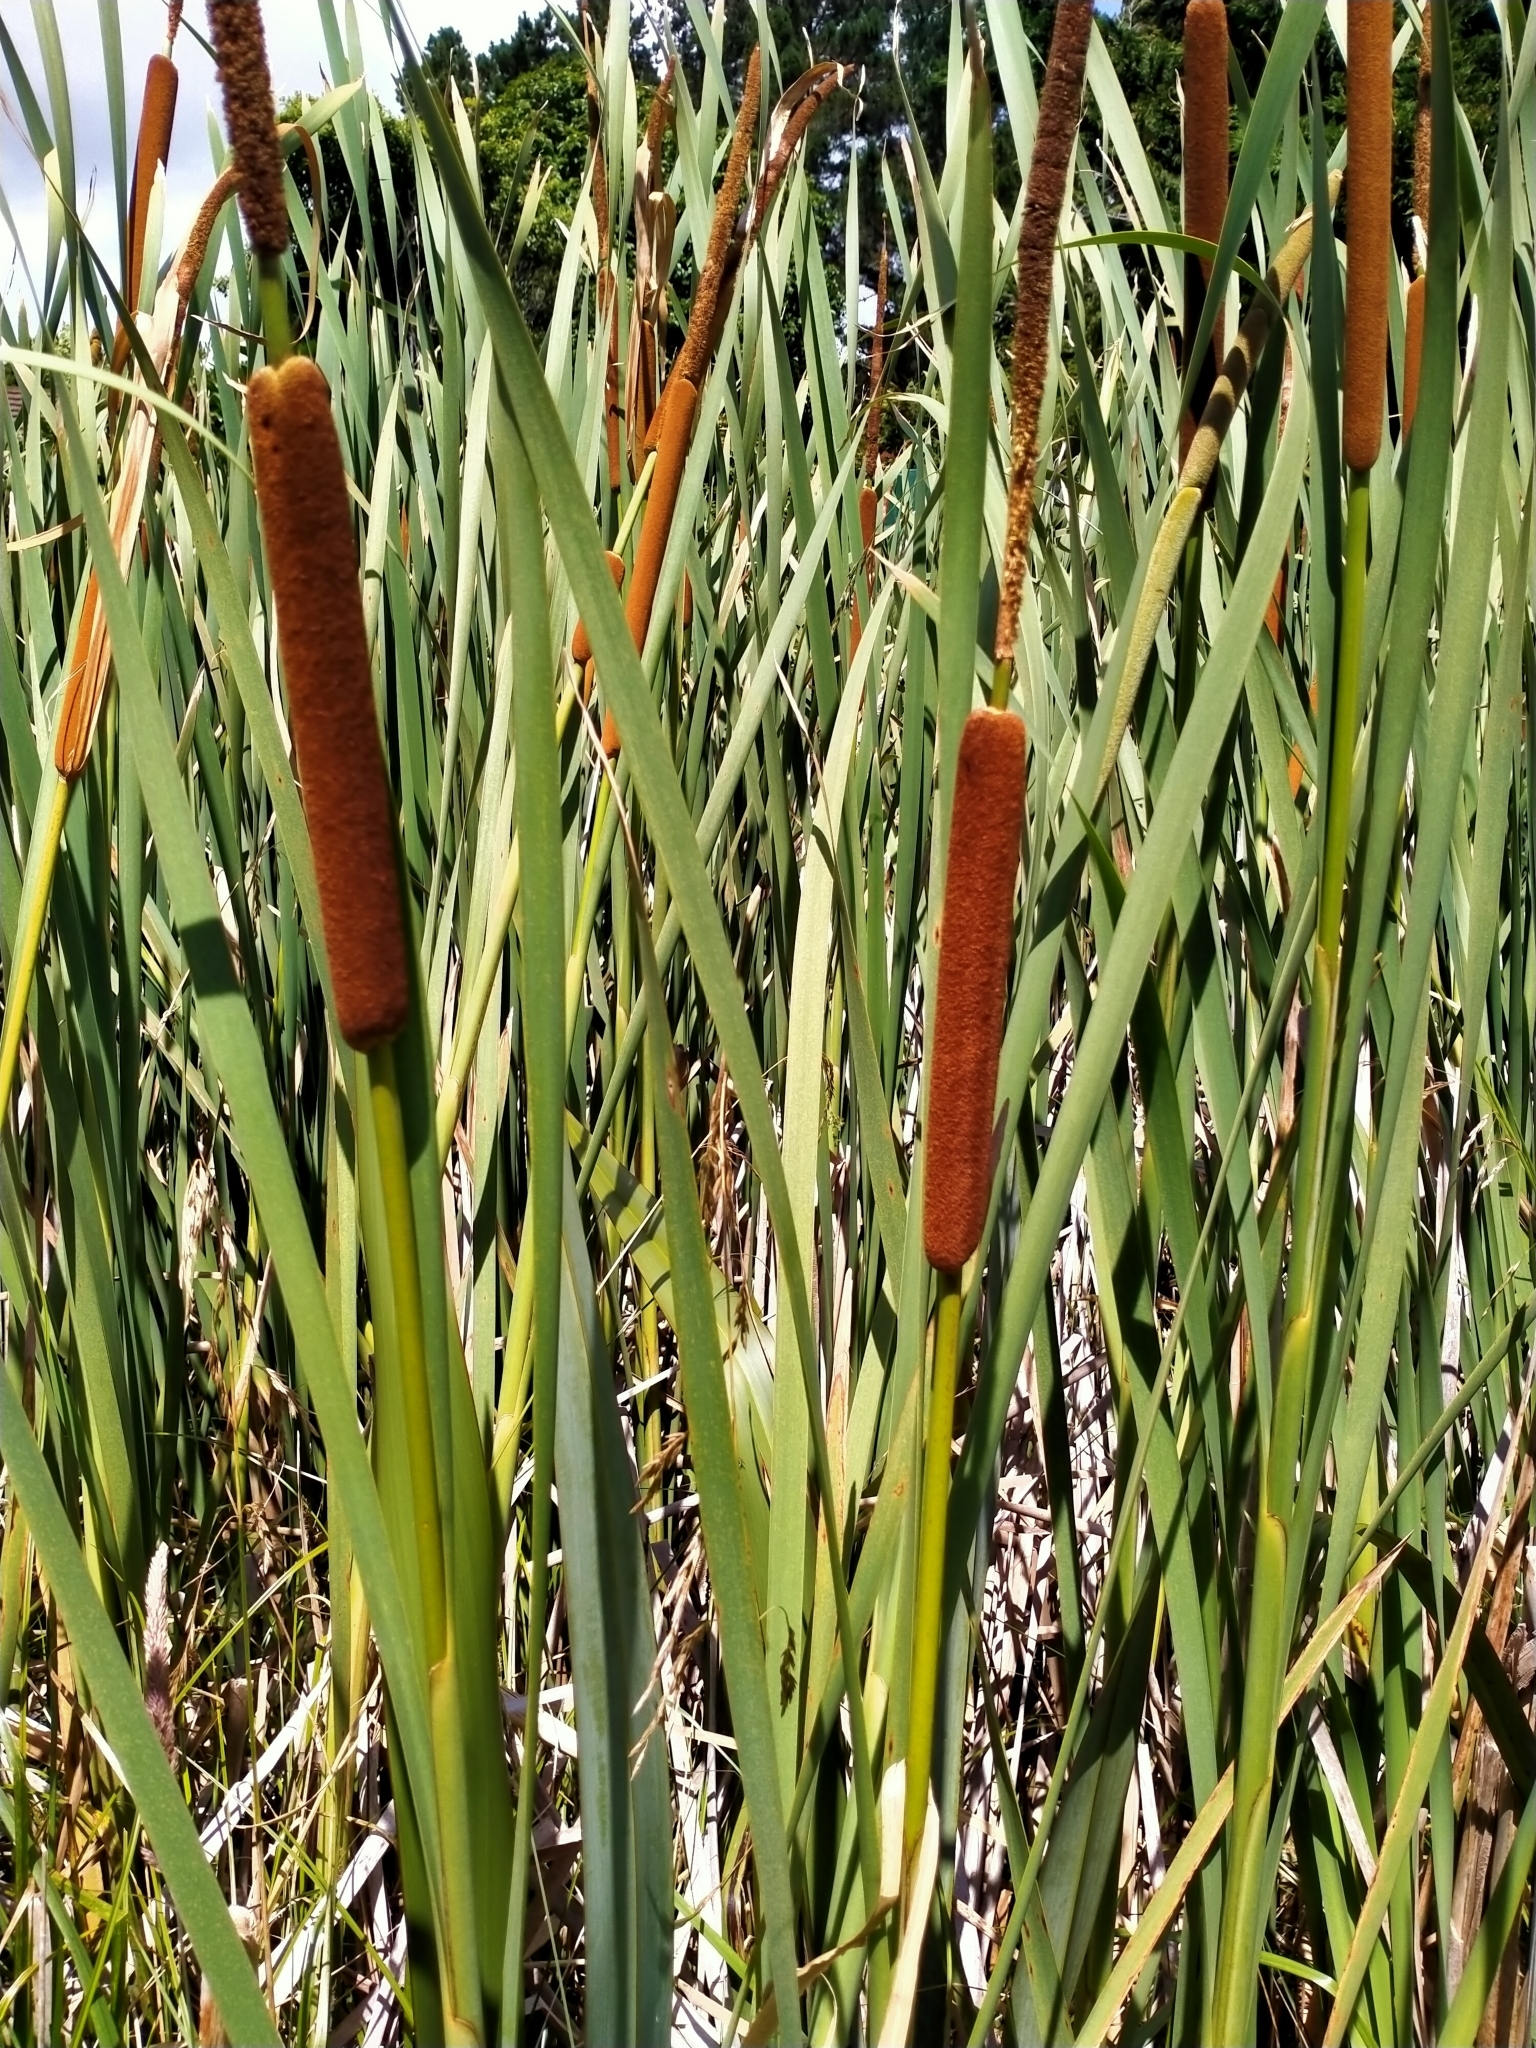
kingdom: Plantae
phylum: Tracheophyta
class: Liliopsida
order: Poales
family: Typhaceae
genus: Typha
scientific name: Typha orientalis
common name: Bullrush
